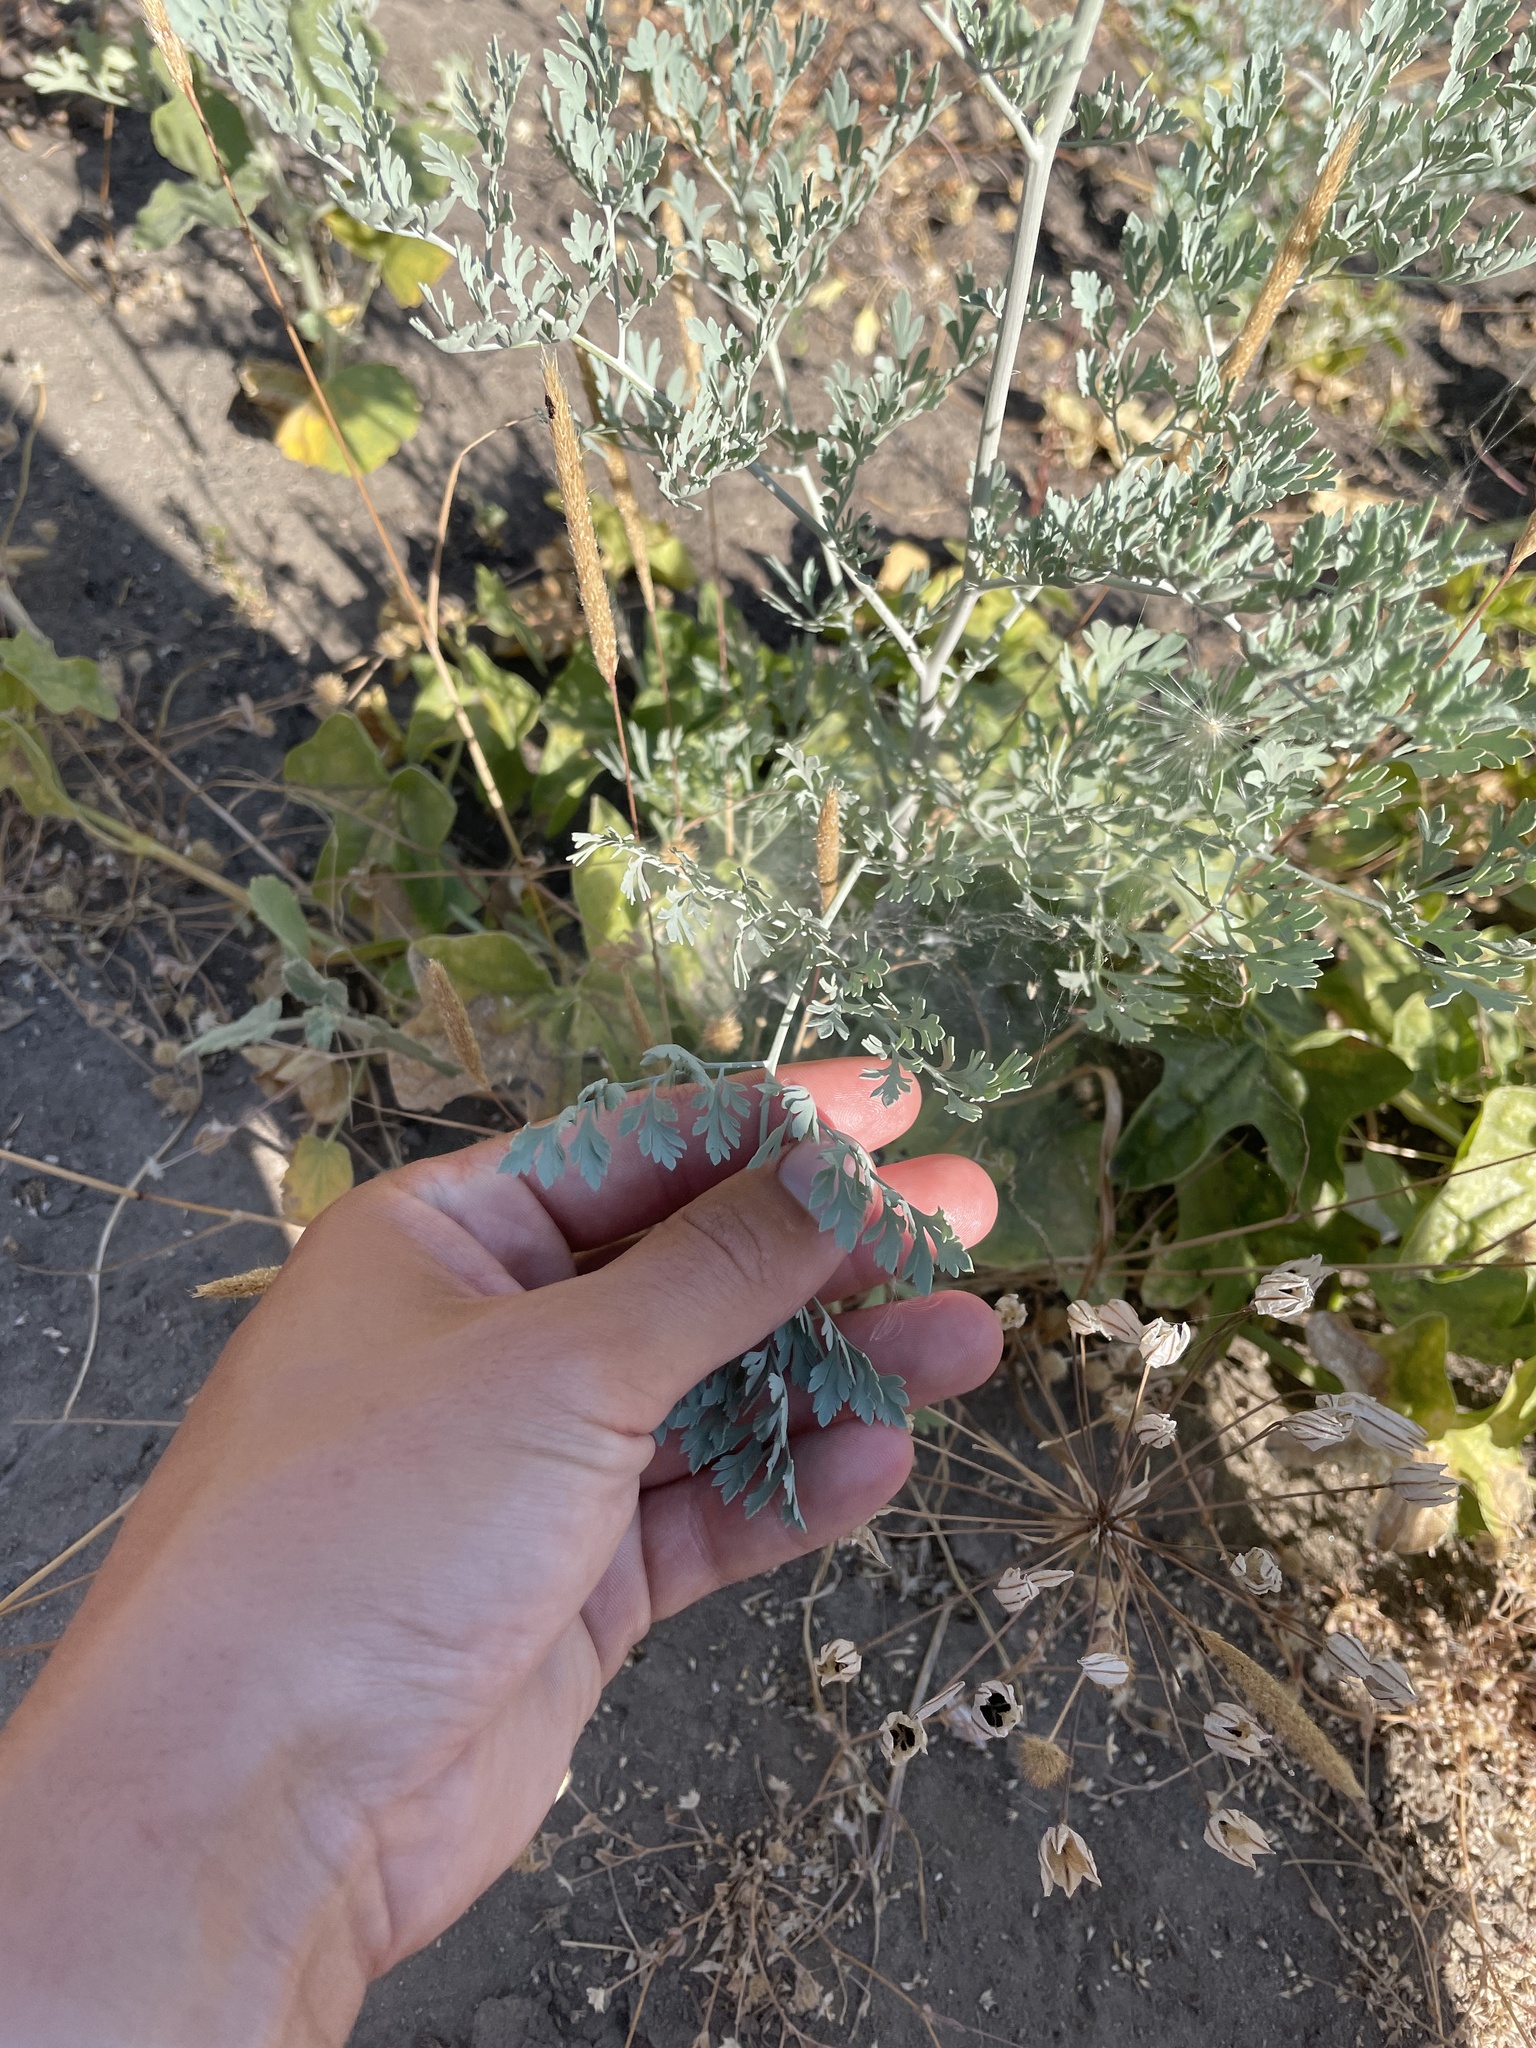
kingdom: Plantae
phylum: Tracheophyta
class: Magnoliopsida
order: Ranunculales
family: Papaveraceae
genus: Ehrendorferia
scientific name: Ehrendorferia chrysantha
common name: Golden eardrops
